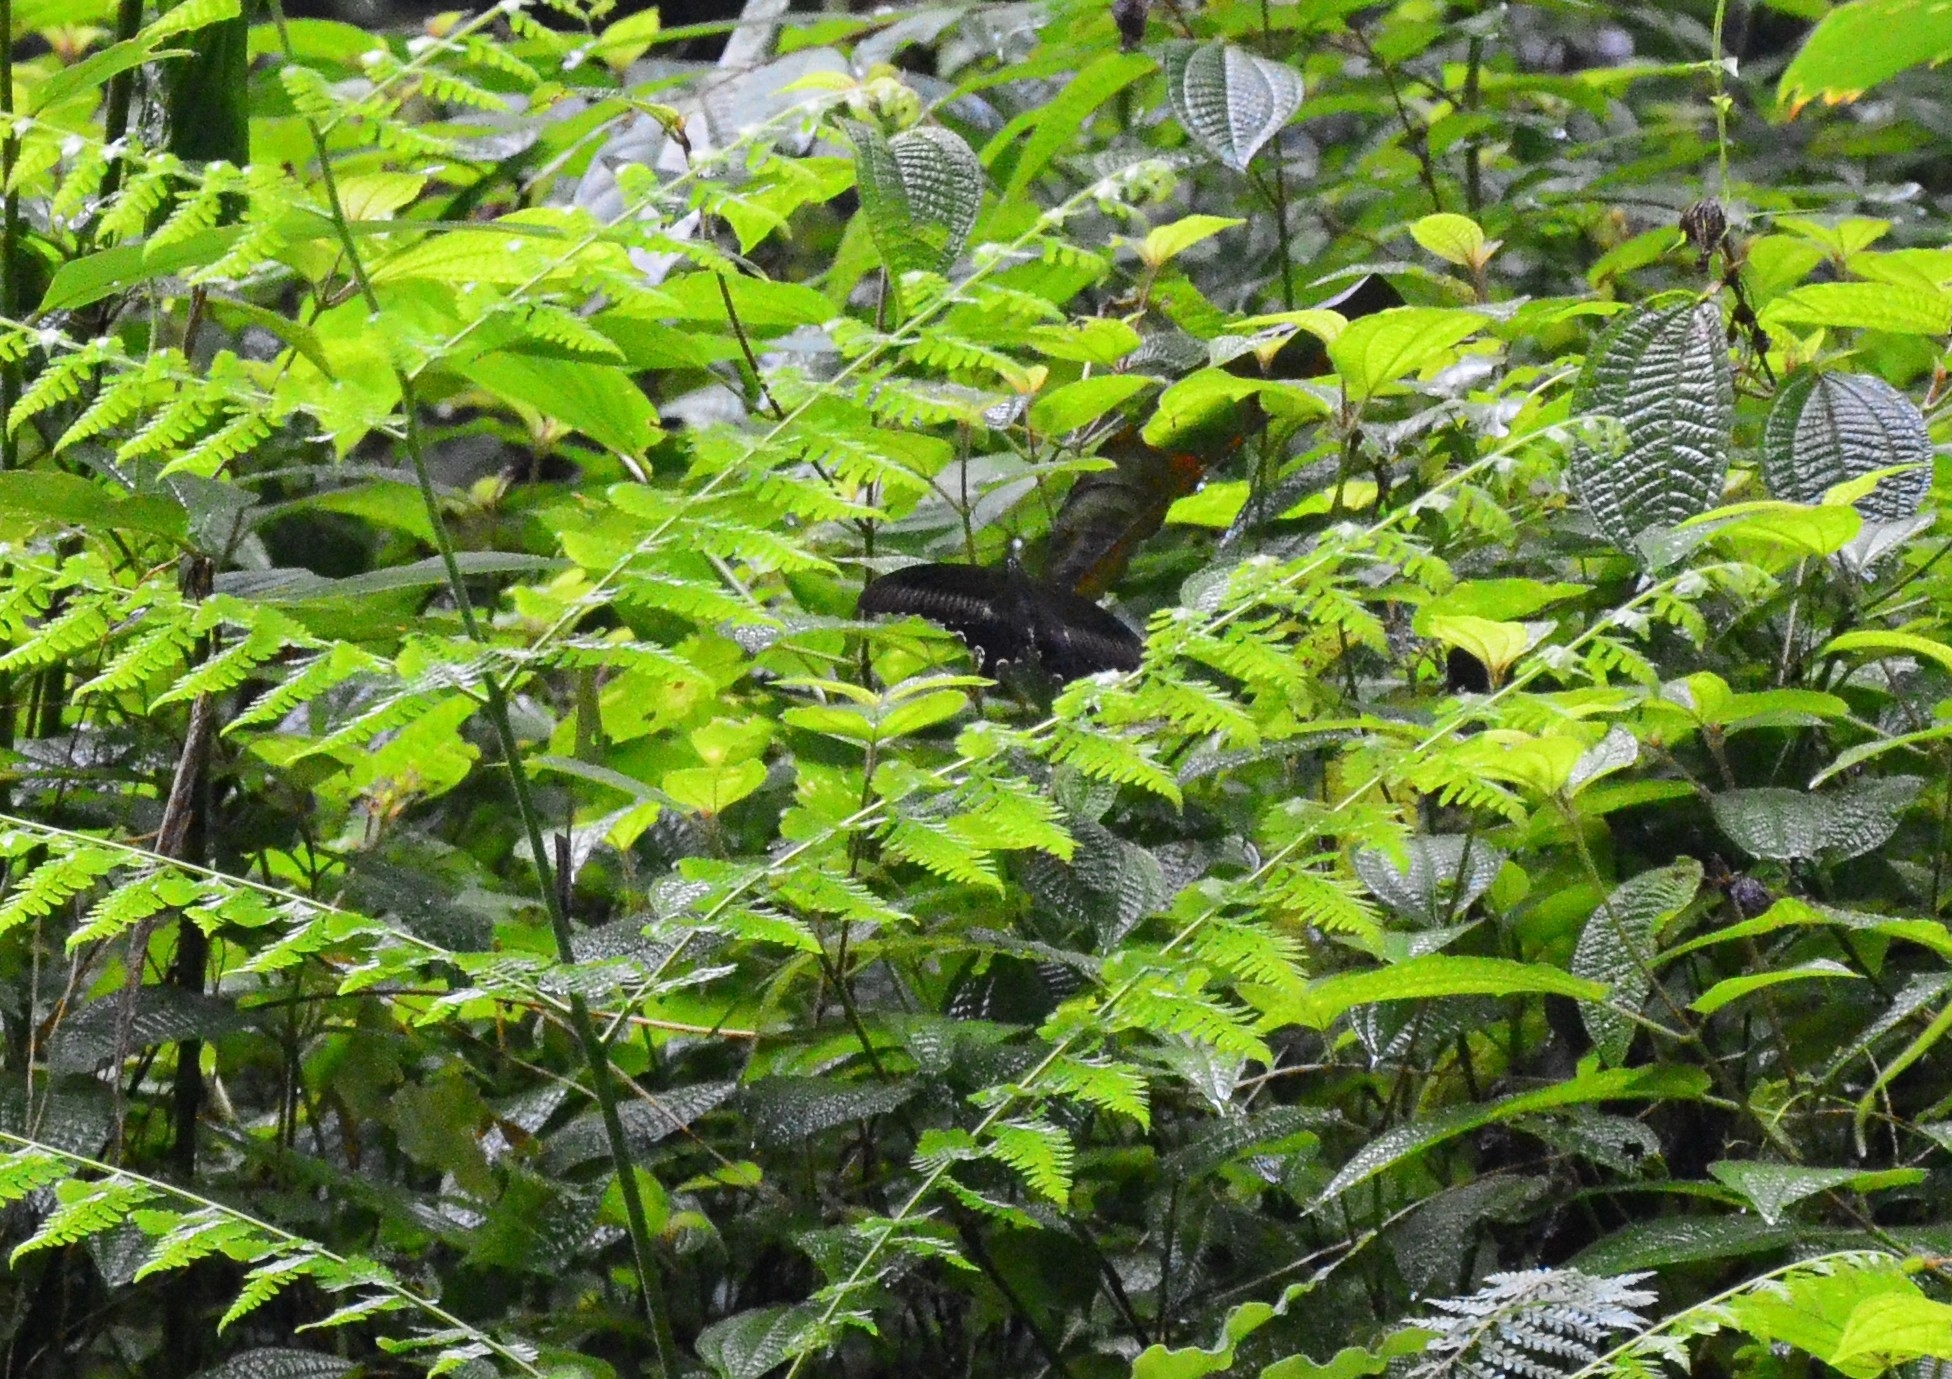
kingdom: Animalia
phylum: Arthropoda
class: Insecta
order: Lepidoptera
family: Papilionidae
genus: Papilio
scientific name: Papilio helenus
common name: Red helen
